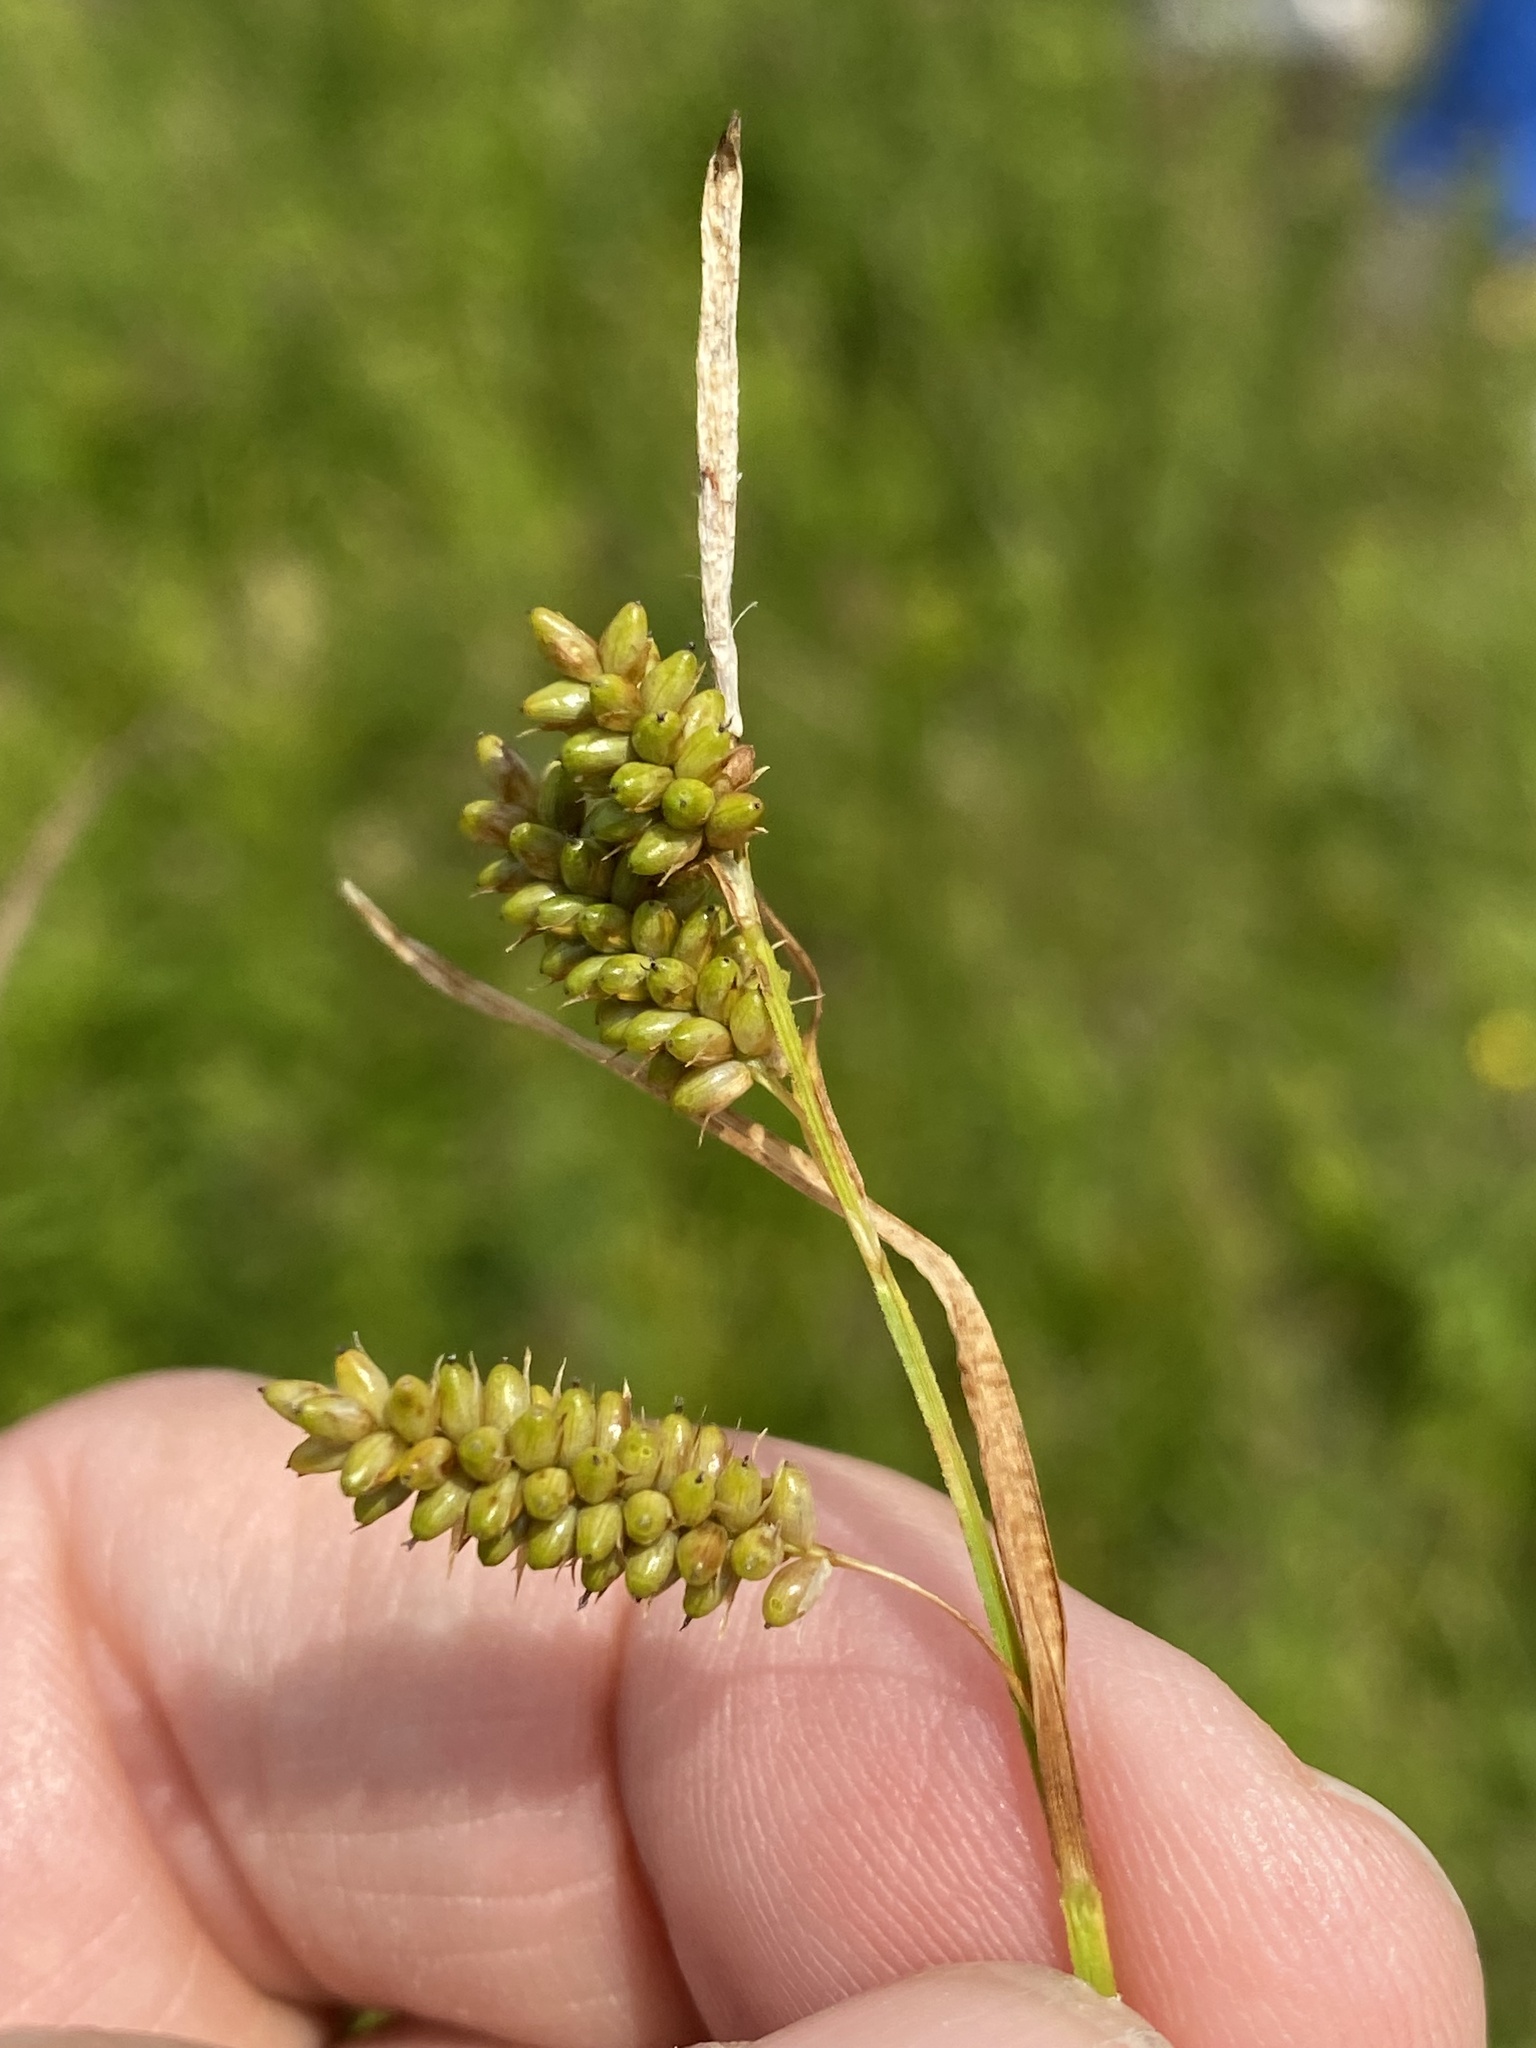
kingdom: Plantae
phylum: Tracheophyta
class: Liliopsida
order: Poales
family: Cyperaceae
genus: Carex
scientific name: Carex pallescens
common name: Pale sedge
